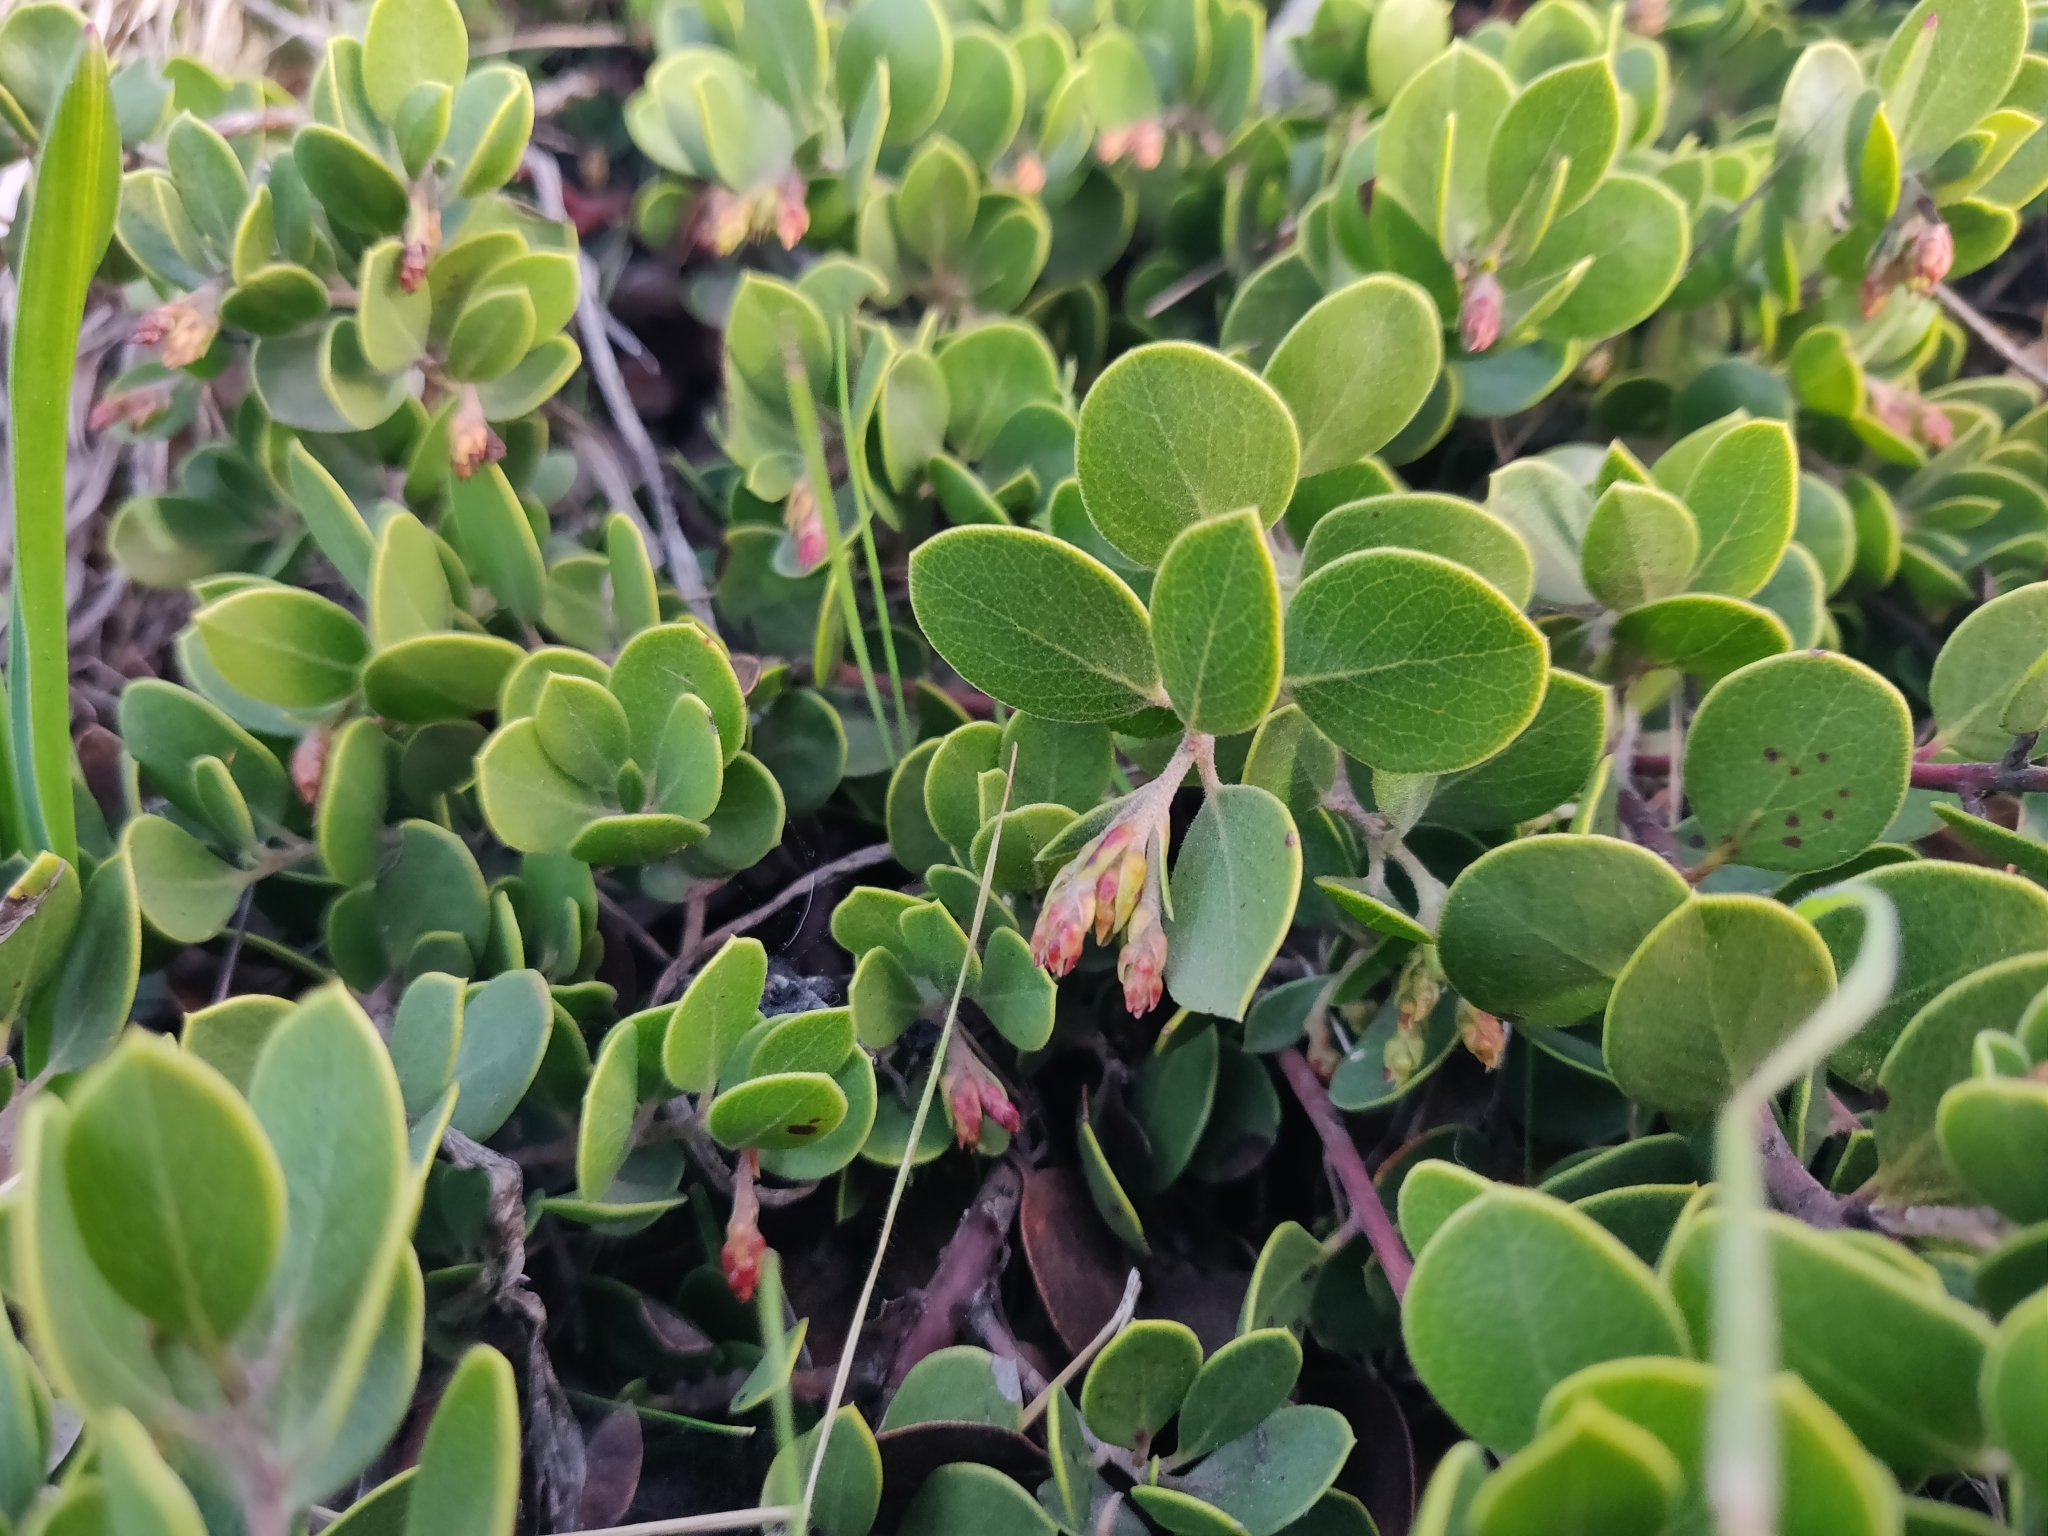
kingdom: Plantae
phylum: Tracheophyta
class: Magnoliopsida
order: Ericales
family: Ericaceae
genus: Arctostaphylos
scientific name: Arctostaphylos mewukka
